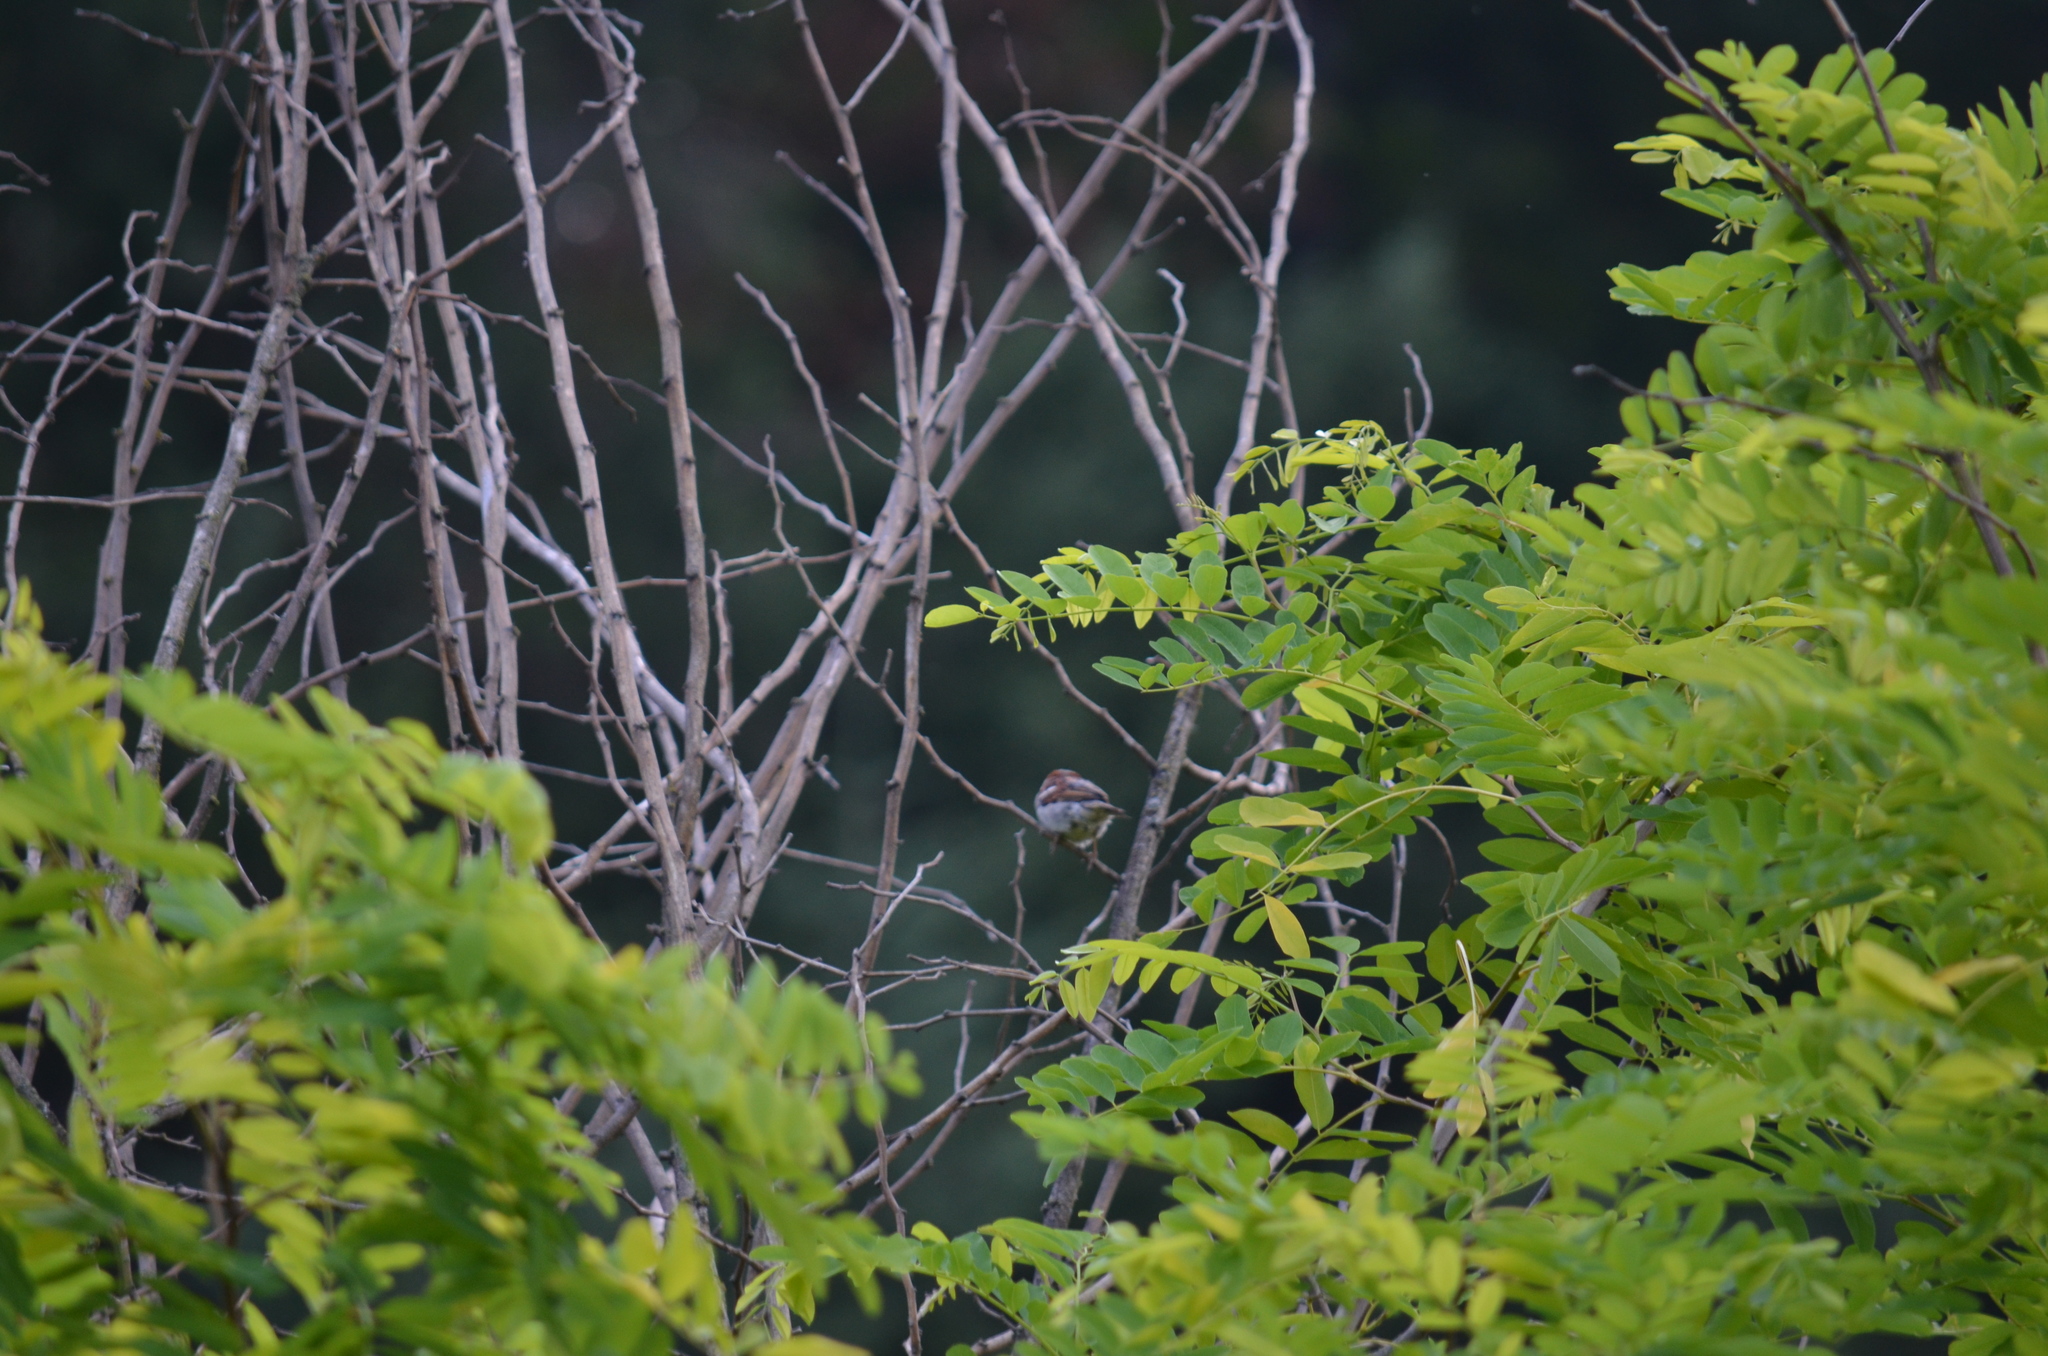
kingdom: Animalia
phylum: Chordata
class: Aves
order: Passeriformes
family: Passeridae
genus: Passer
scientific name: Passer domesticus
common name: House sparrow
